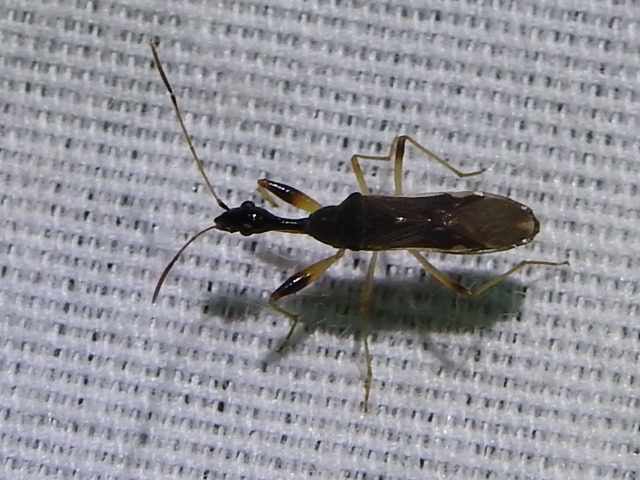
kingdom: Animalia
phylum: Arthropoda
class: Insecta
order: Hemiptera
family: Rhyparochromidae
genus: Myodocha
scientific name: Myodocha serripes
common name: Long-necked seed bug
